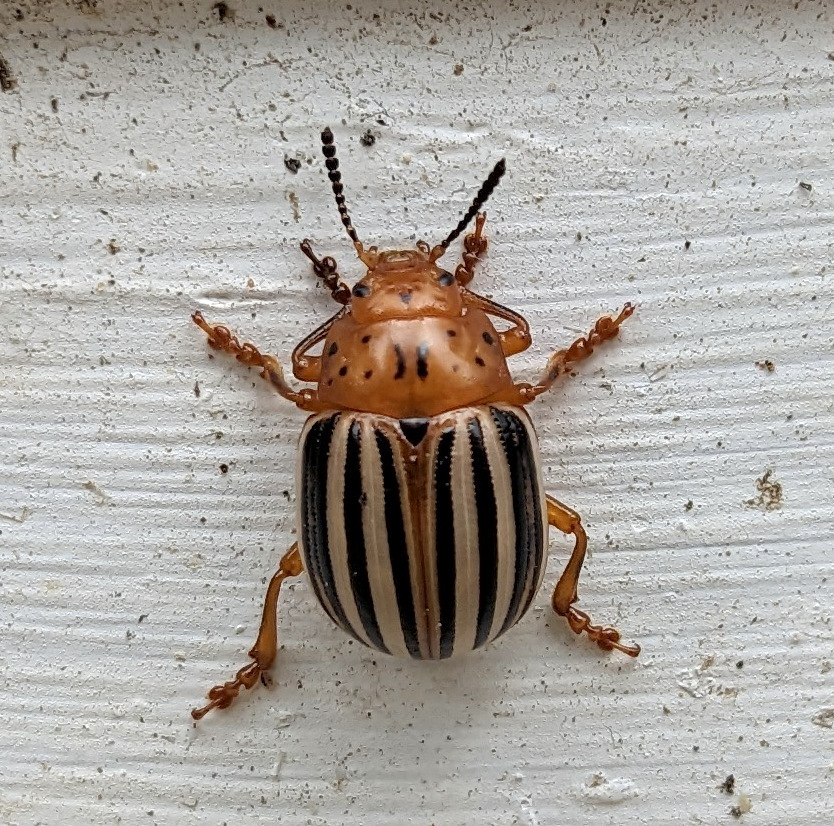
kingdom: Animalia
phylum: Arthropoda
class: Insecta
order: Coleoptera
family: Chrysomelidae
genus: Leptinotarsa
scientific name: Leptinotarsa juncta
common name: False potato beetle
